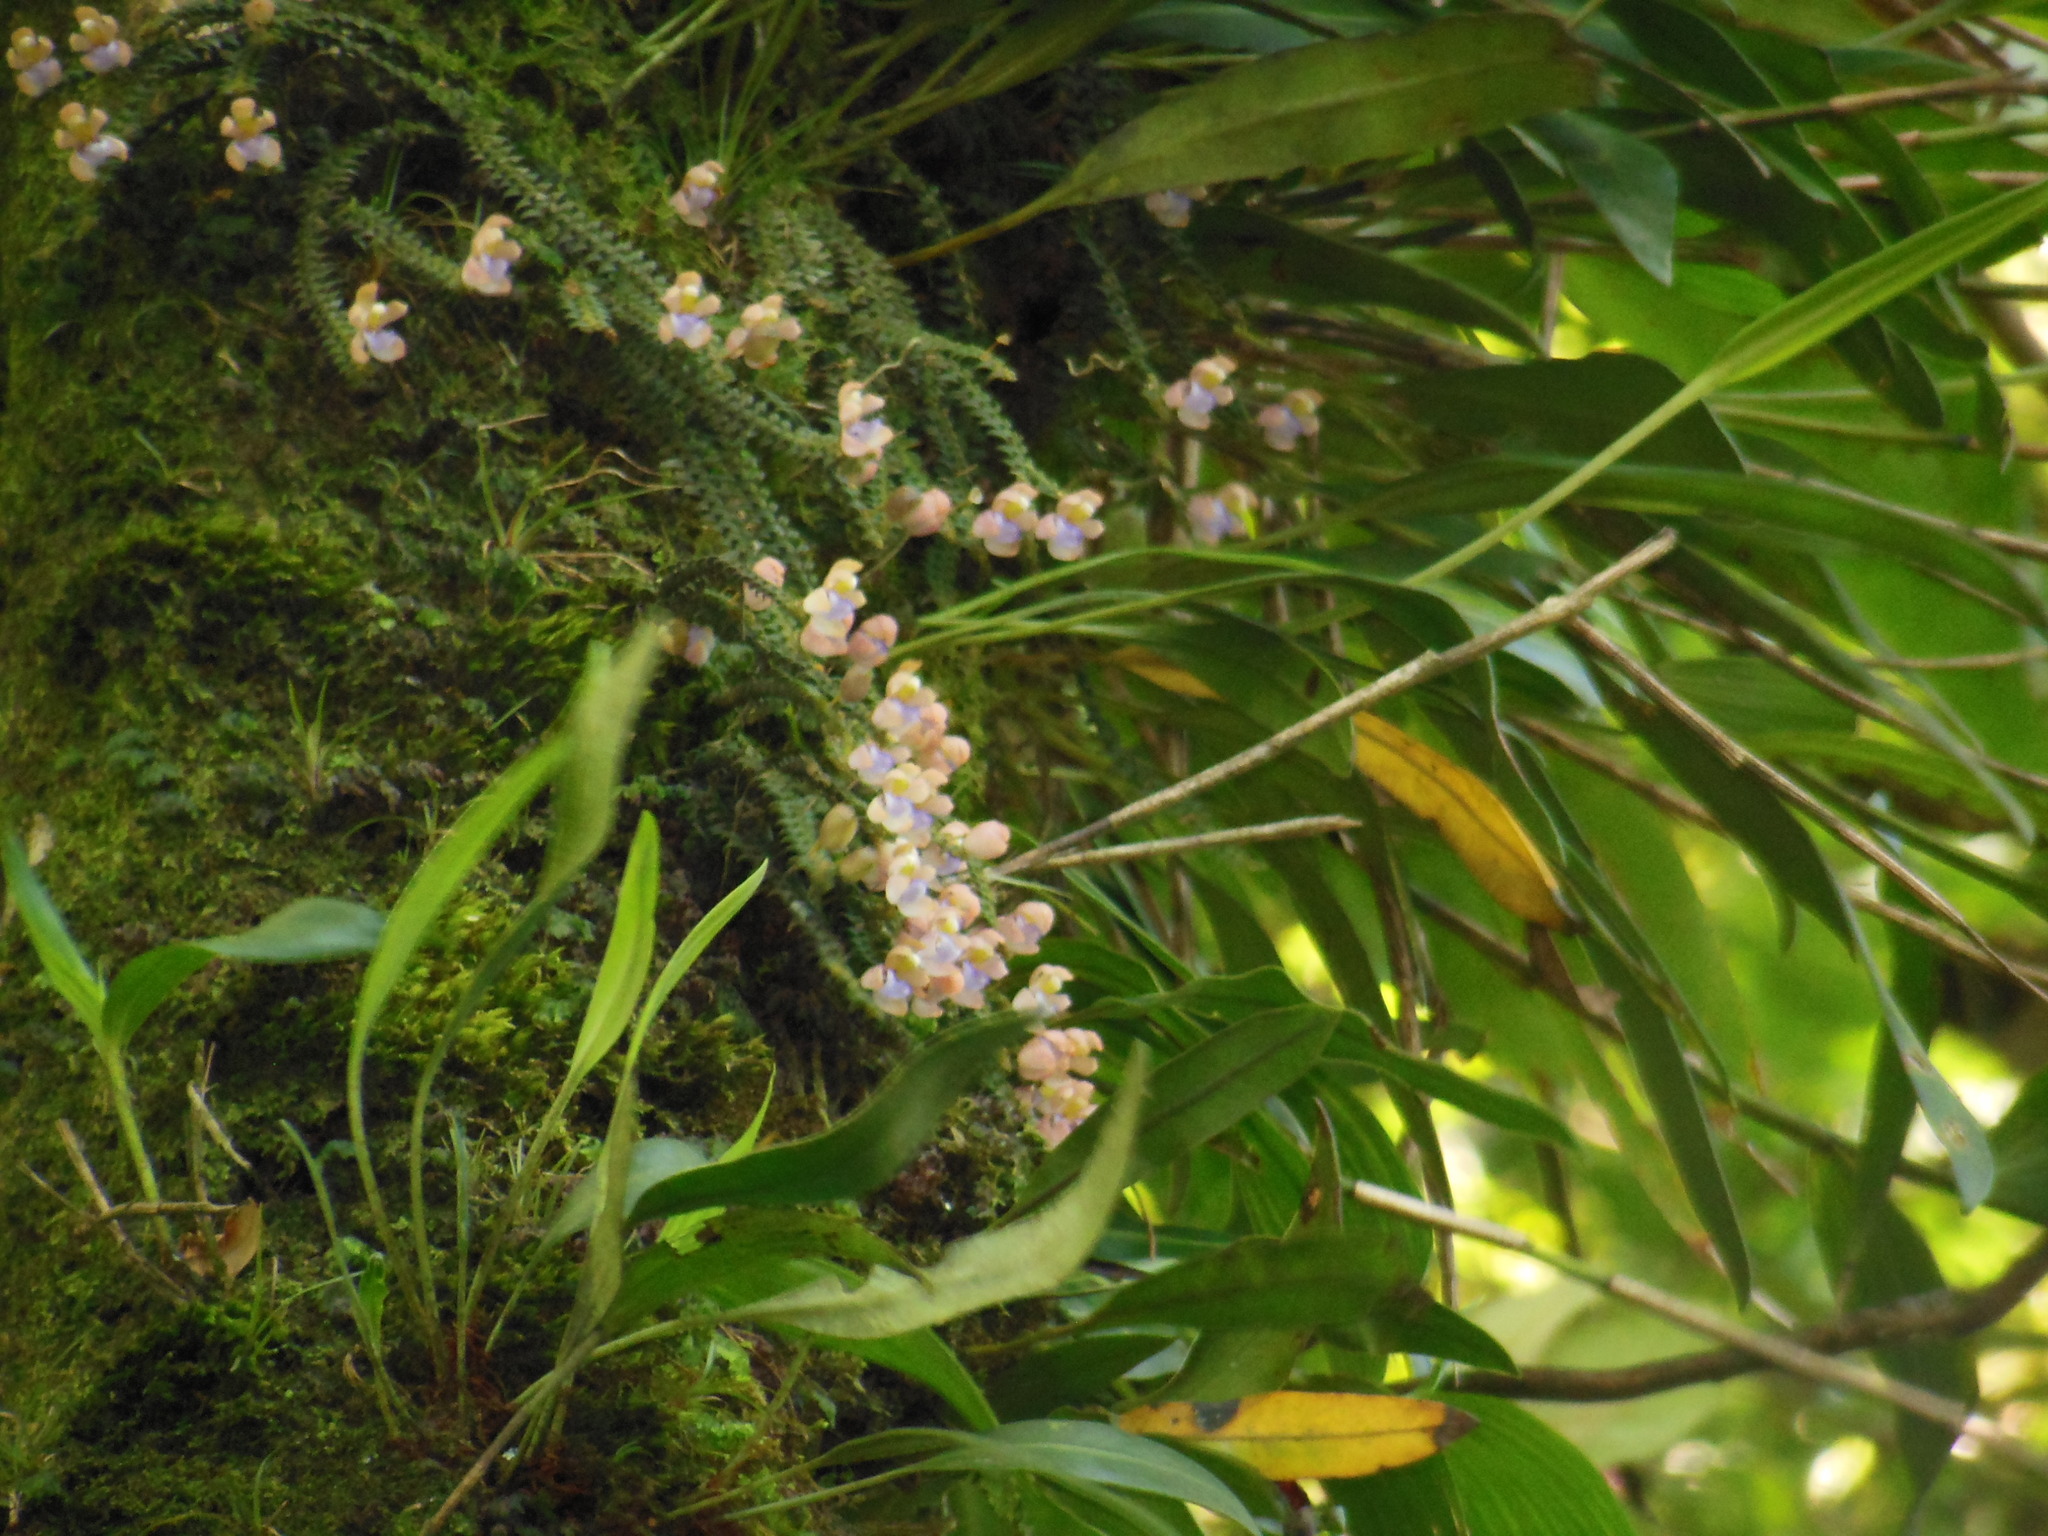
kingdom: Plantae
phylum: Tracheophyta
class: Liliopsida
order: Asparagales
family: Orchidaceae
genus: Dichaea
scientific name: Dichaea squarrosa
